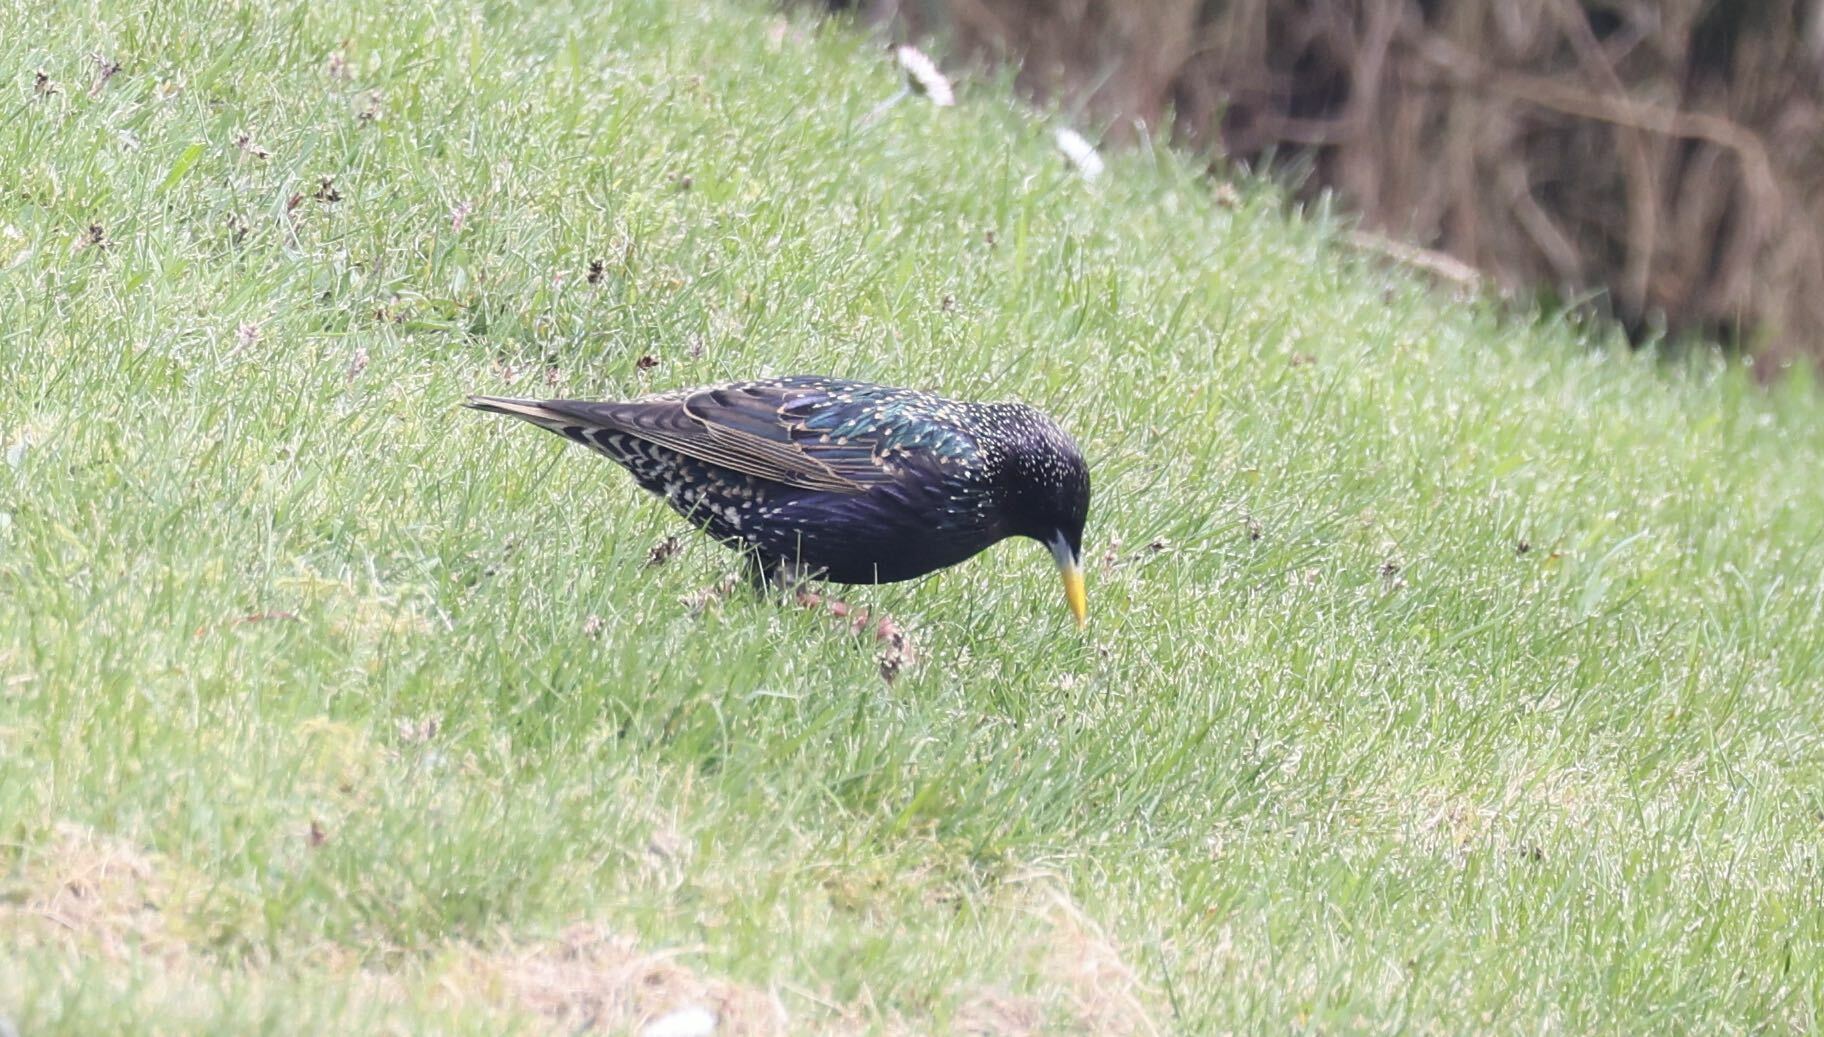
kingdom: Animalia
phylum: Chordata
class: Aves
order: Passeriformes
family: Sturnidae
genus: Sturnus
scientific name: Sturnus vulgaris
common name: Common starling
